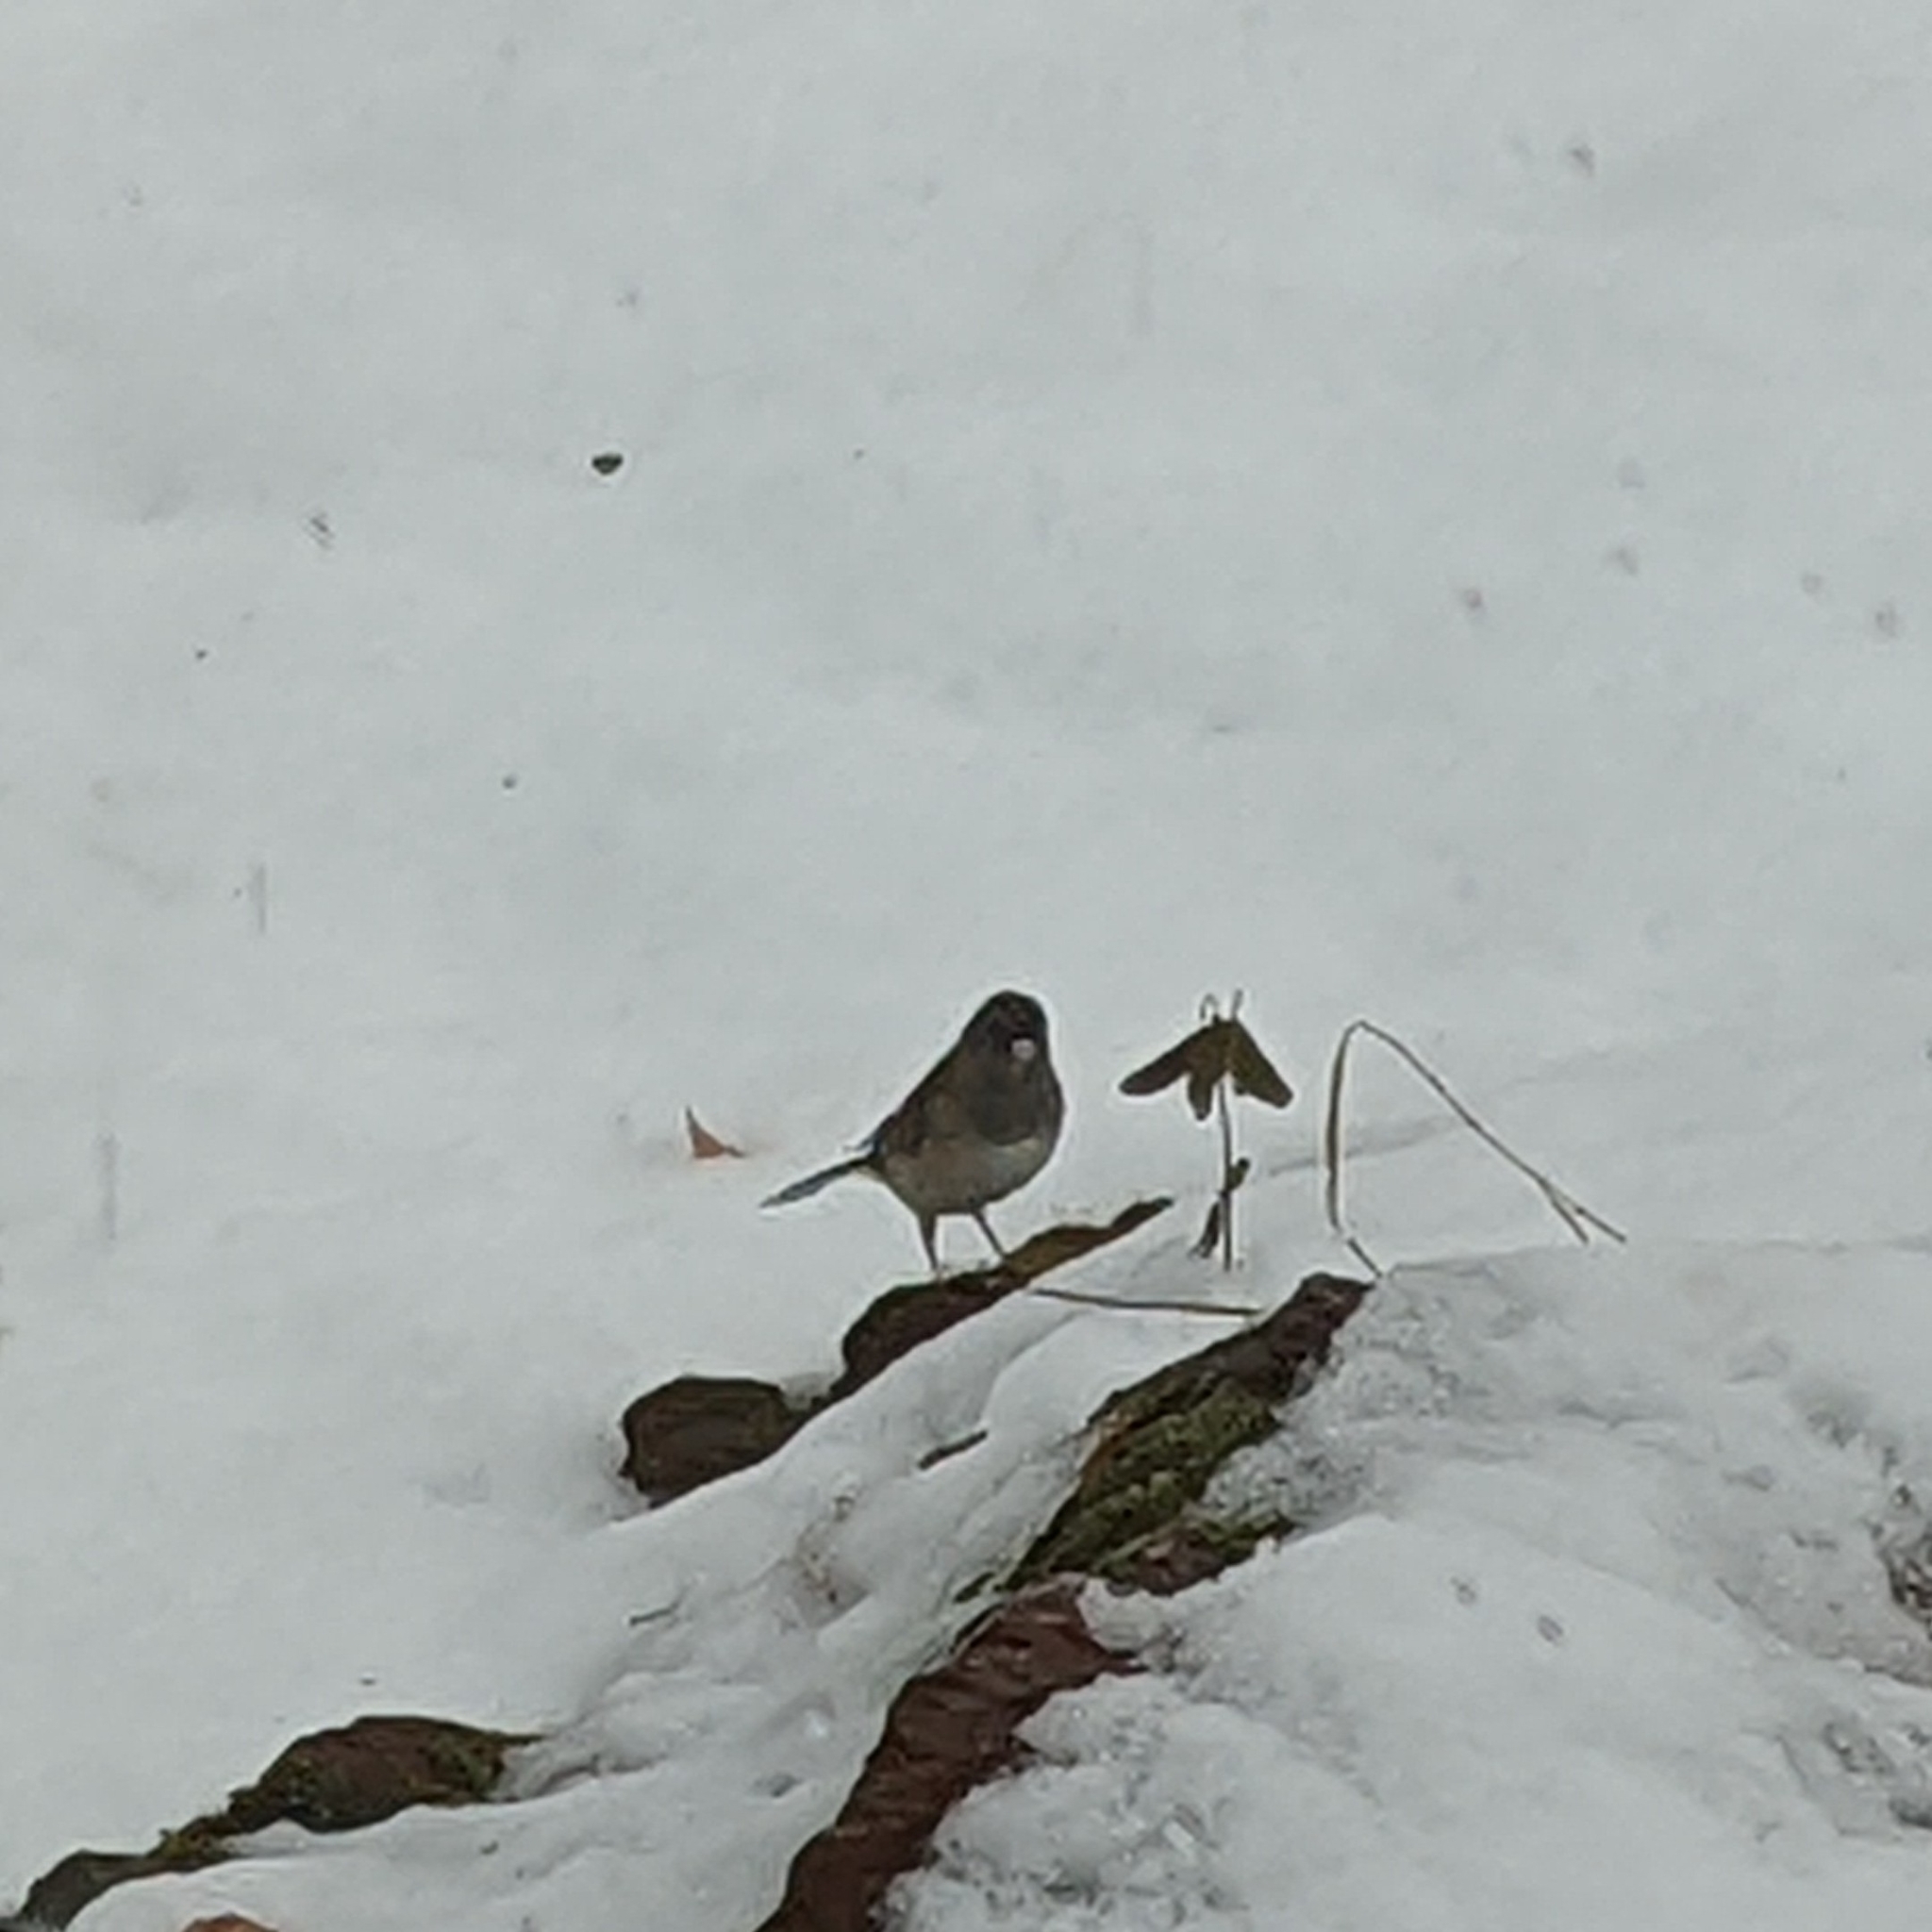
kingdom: Animalia
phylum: Chordata
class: Aves
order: Passeriformes
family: Passerellidae
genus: Junco
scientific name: Junco hyemalis
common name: Dark-eyed junco
